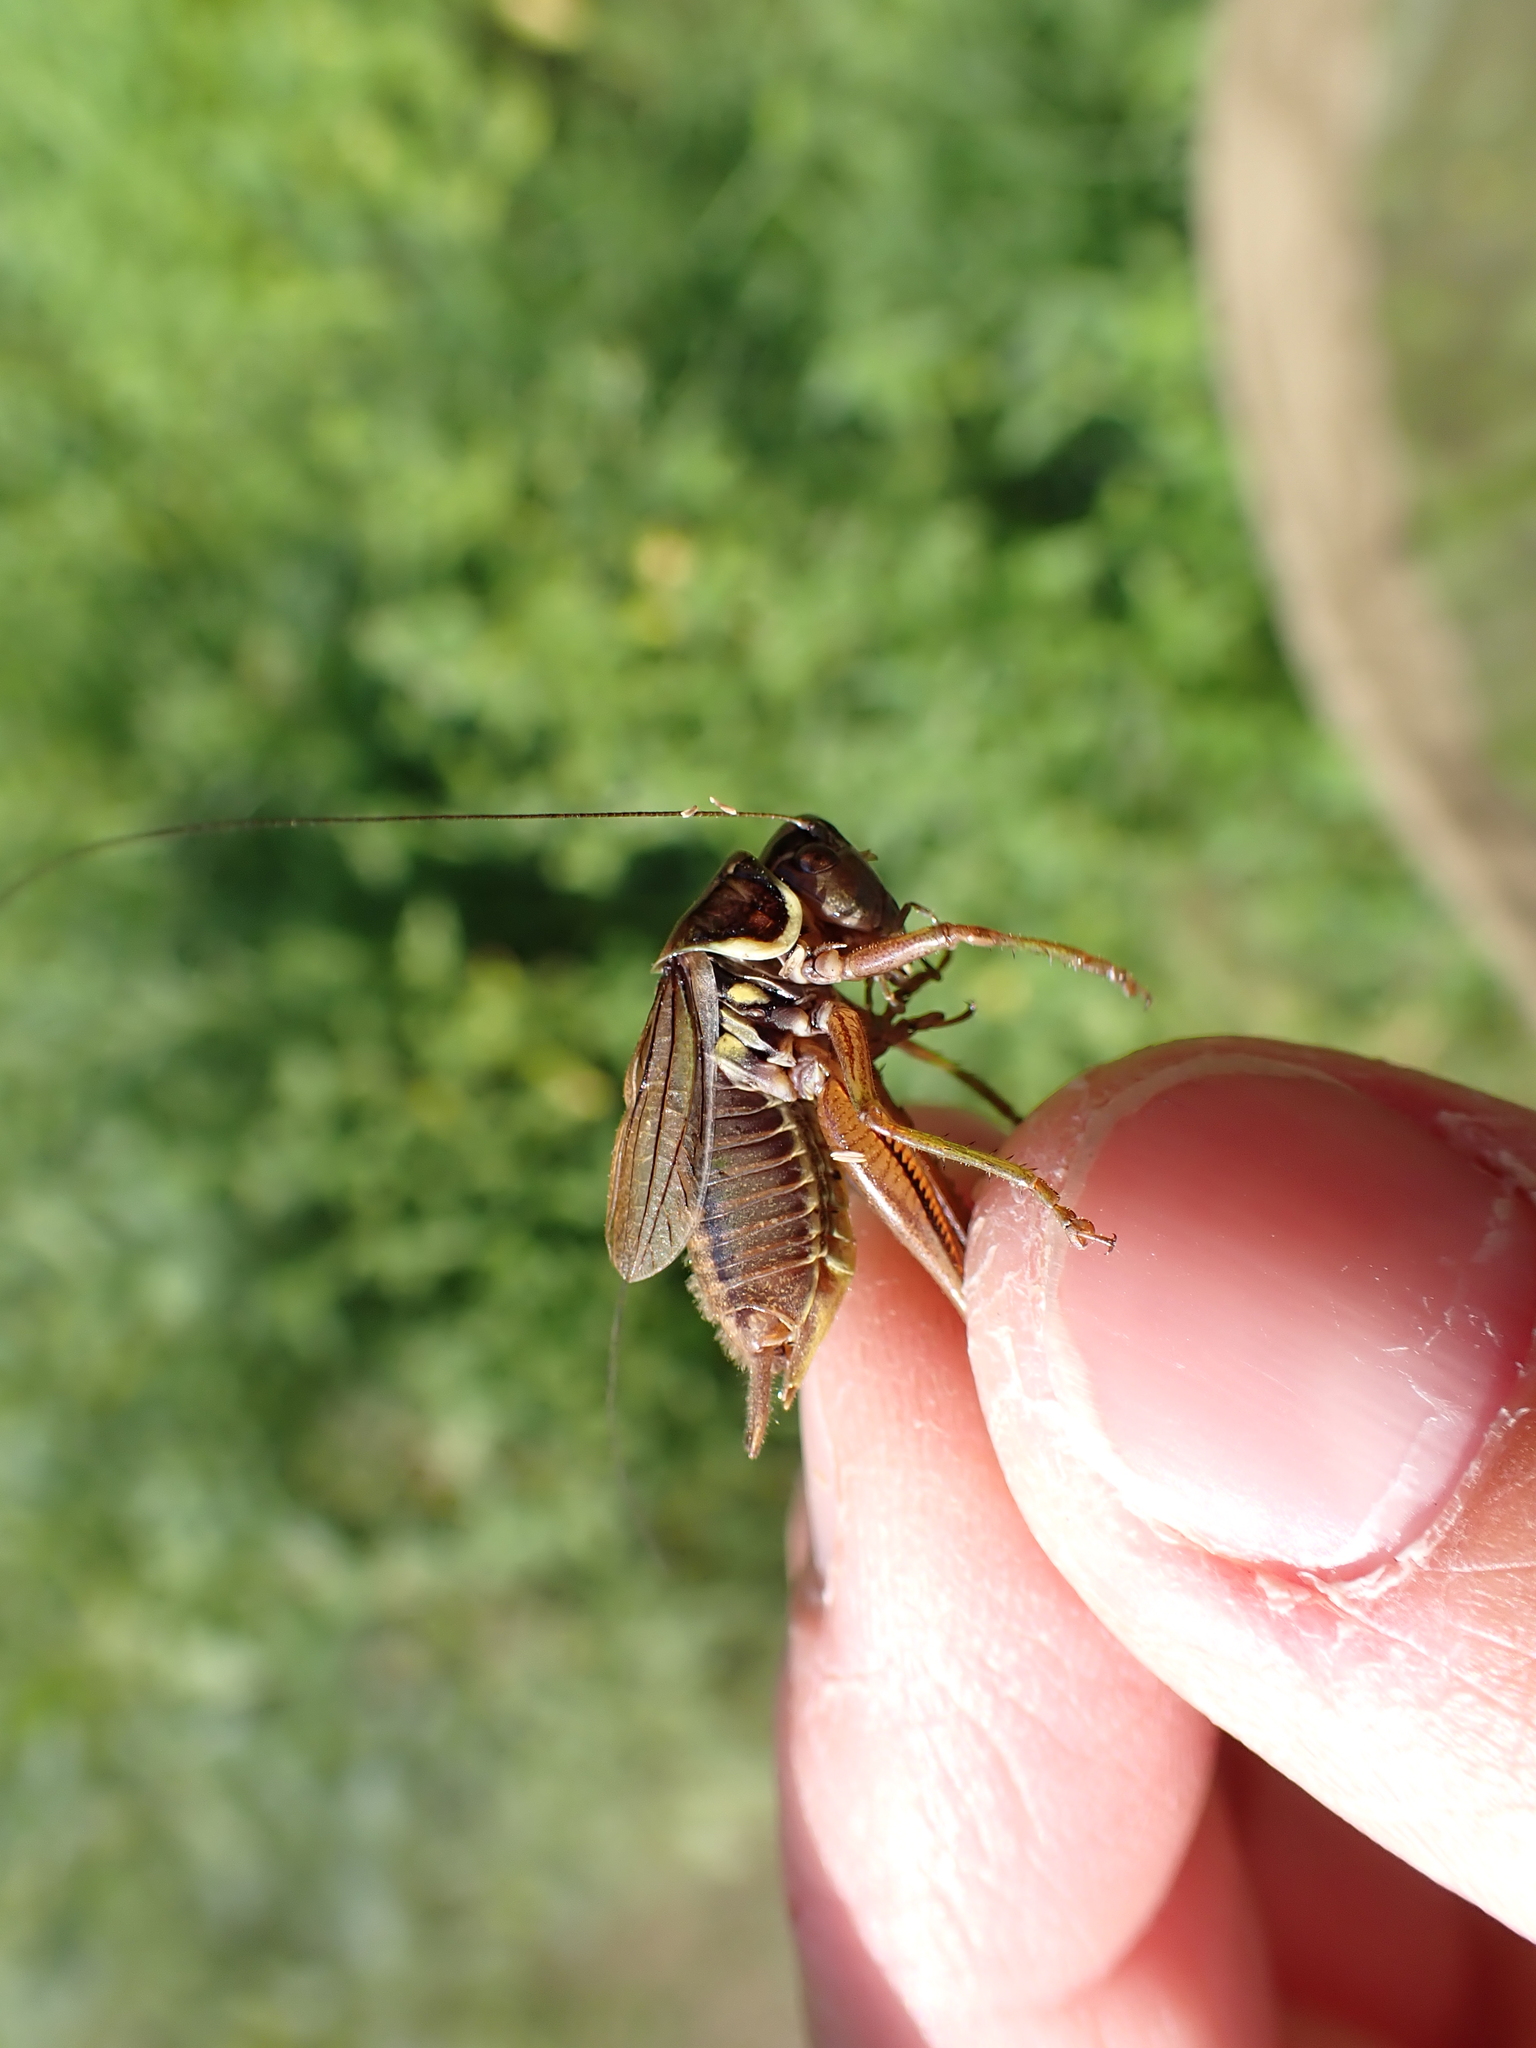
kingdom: Animalia
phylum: Arthropoda
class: Insecta
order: Orthoptera
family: Tettigoniidae
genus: Roeseliana
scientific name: Roeseliana roeselii
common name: Roesel's bush cricket
